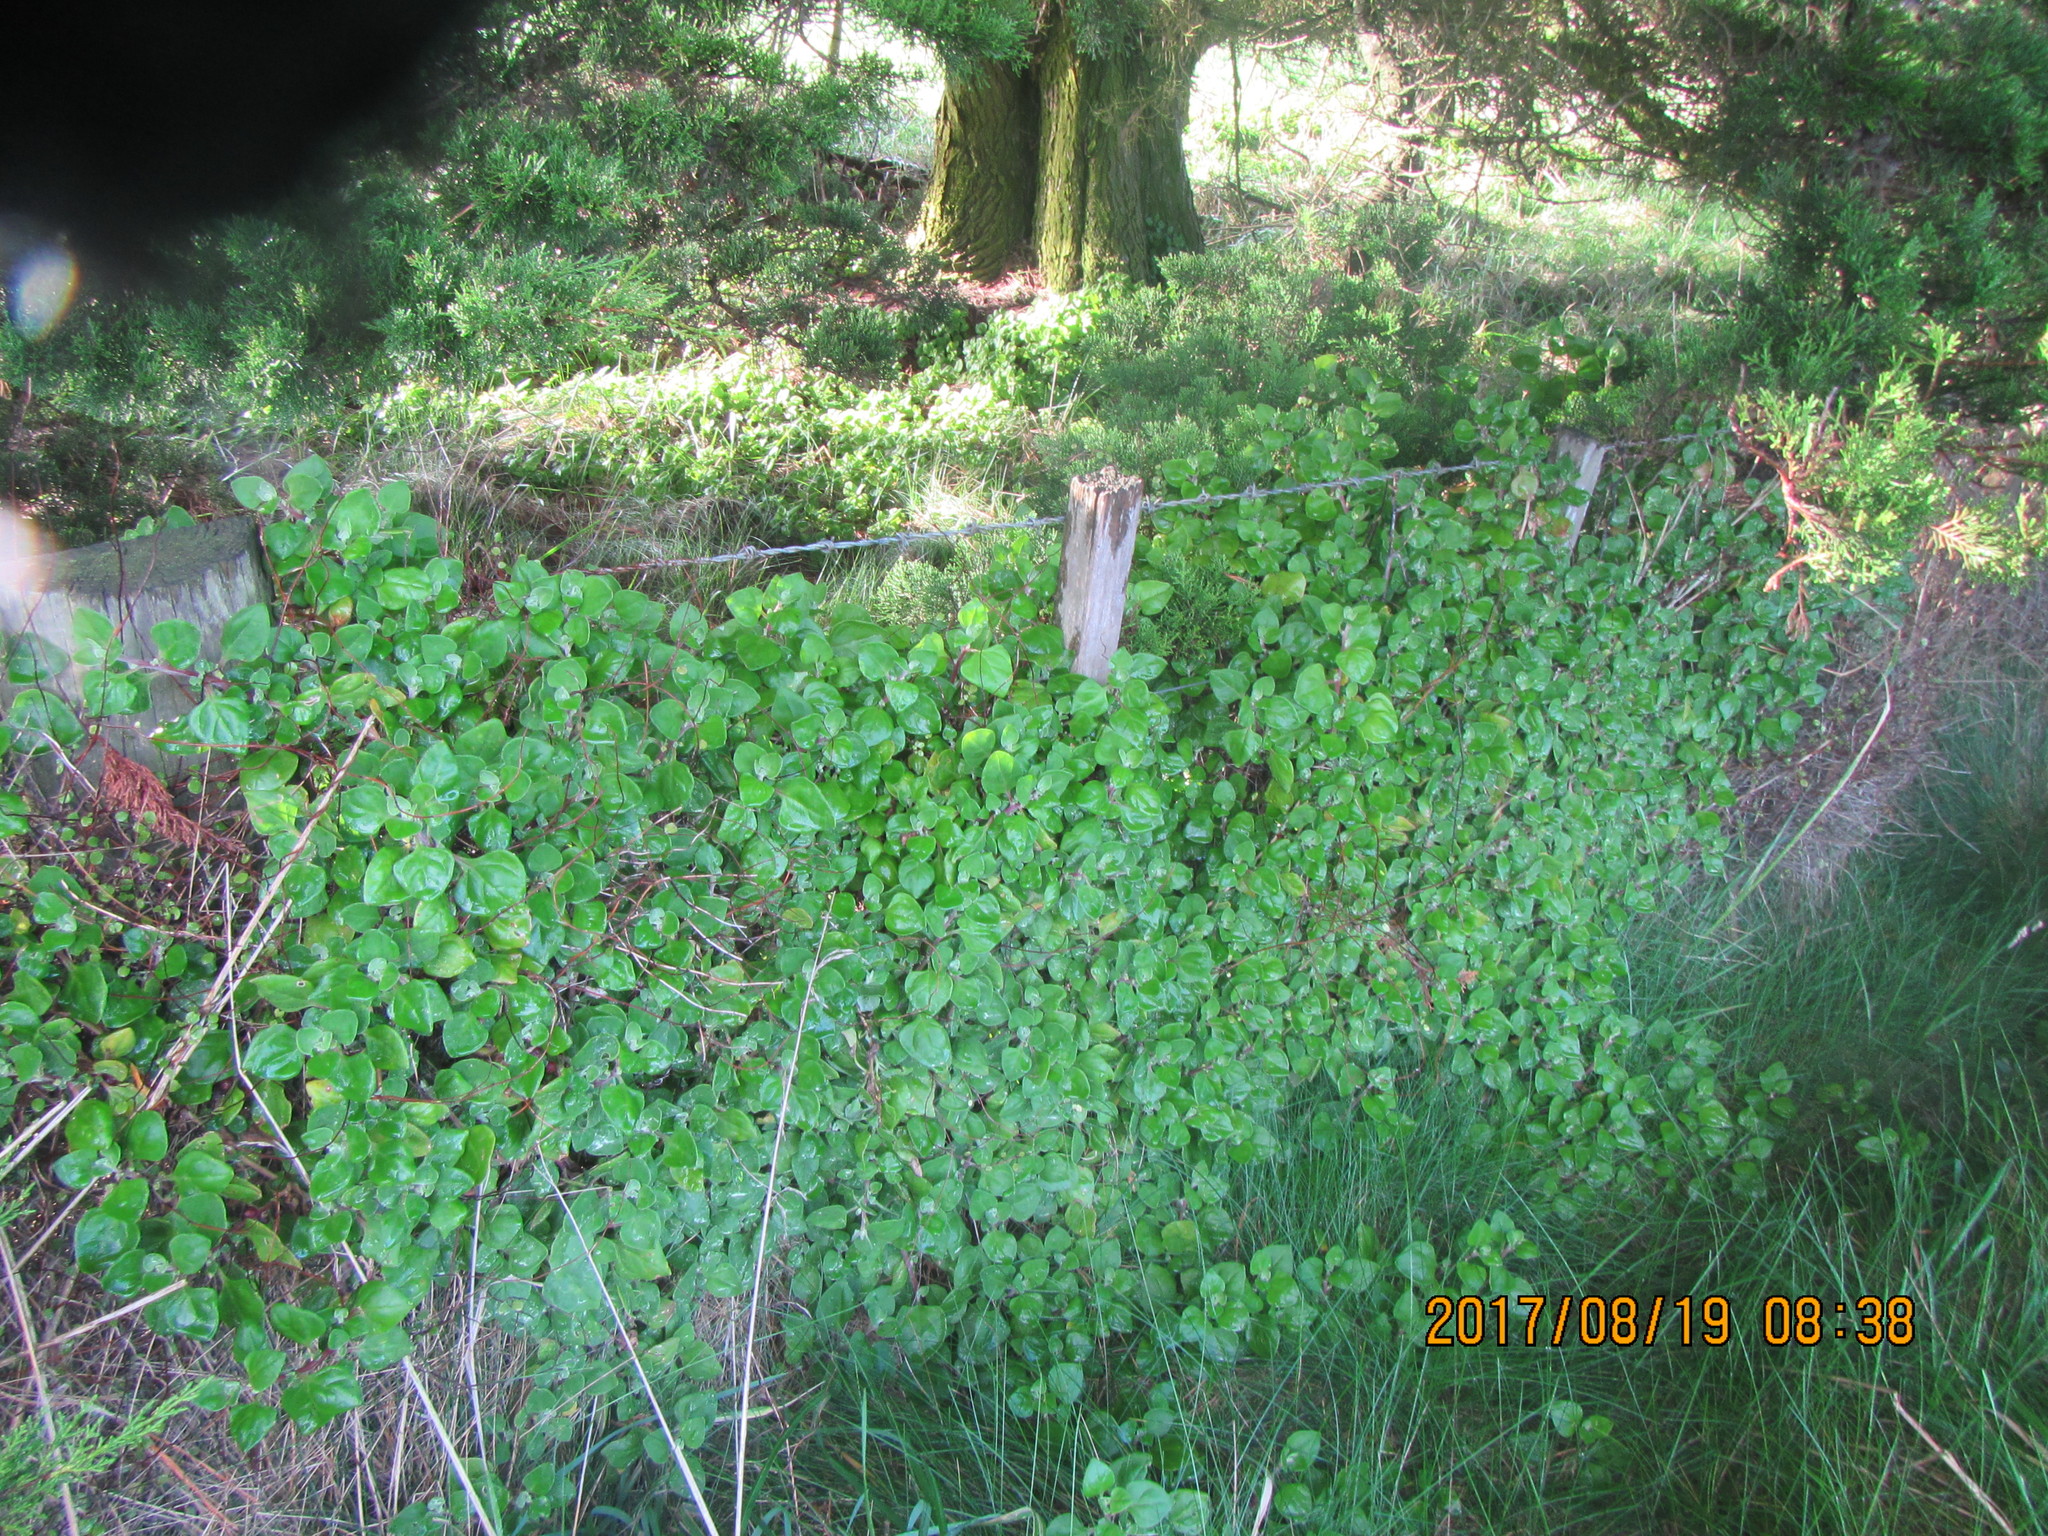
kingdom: Plantae
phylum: Tracheophyta
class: Magnoliopsida
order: Caryophyllales
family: Aizoaceae
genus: Tetragonia
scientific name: Tetragonia implexicoma
